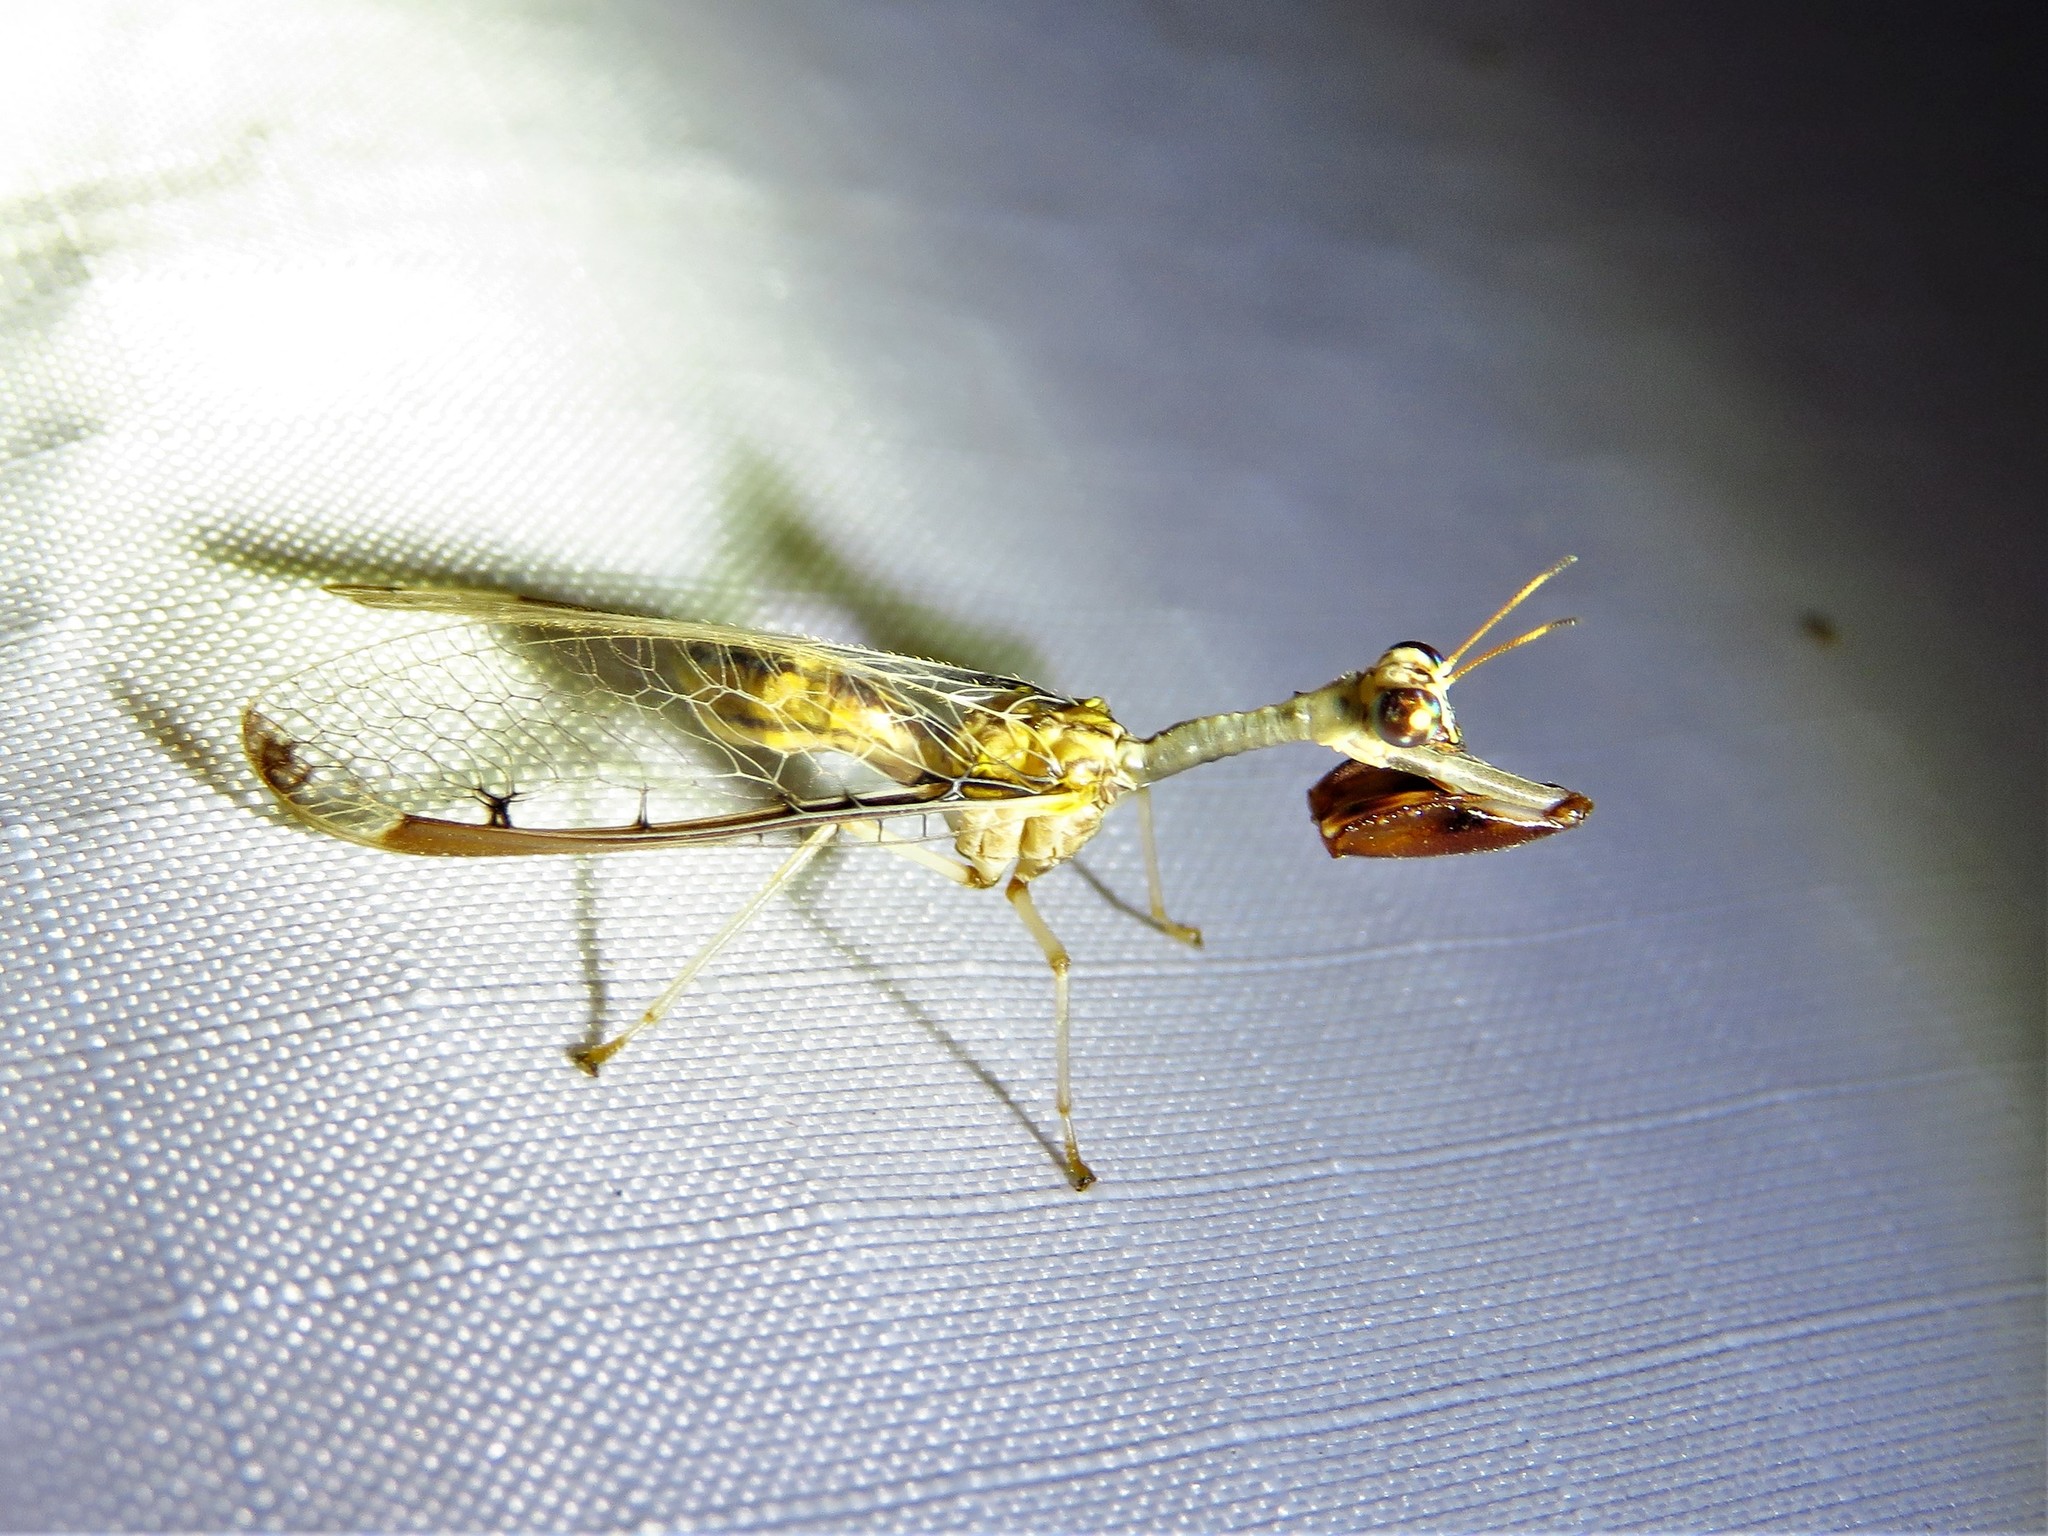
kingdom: Animalia
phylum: Arthropoda
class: Insecta
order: Neuroptera
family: Mantispidae
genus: Dicromantispa
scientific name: Dicromantispa interrupta
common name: Four-spotted mantidfly
